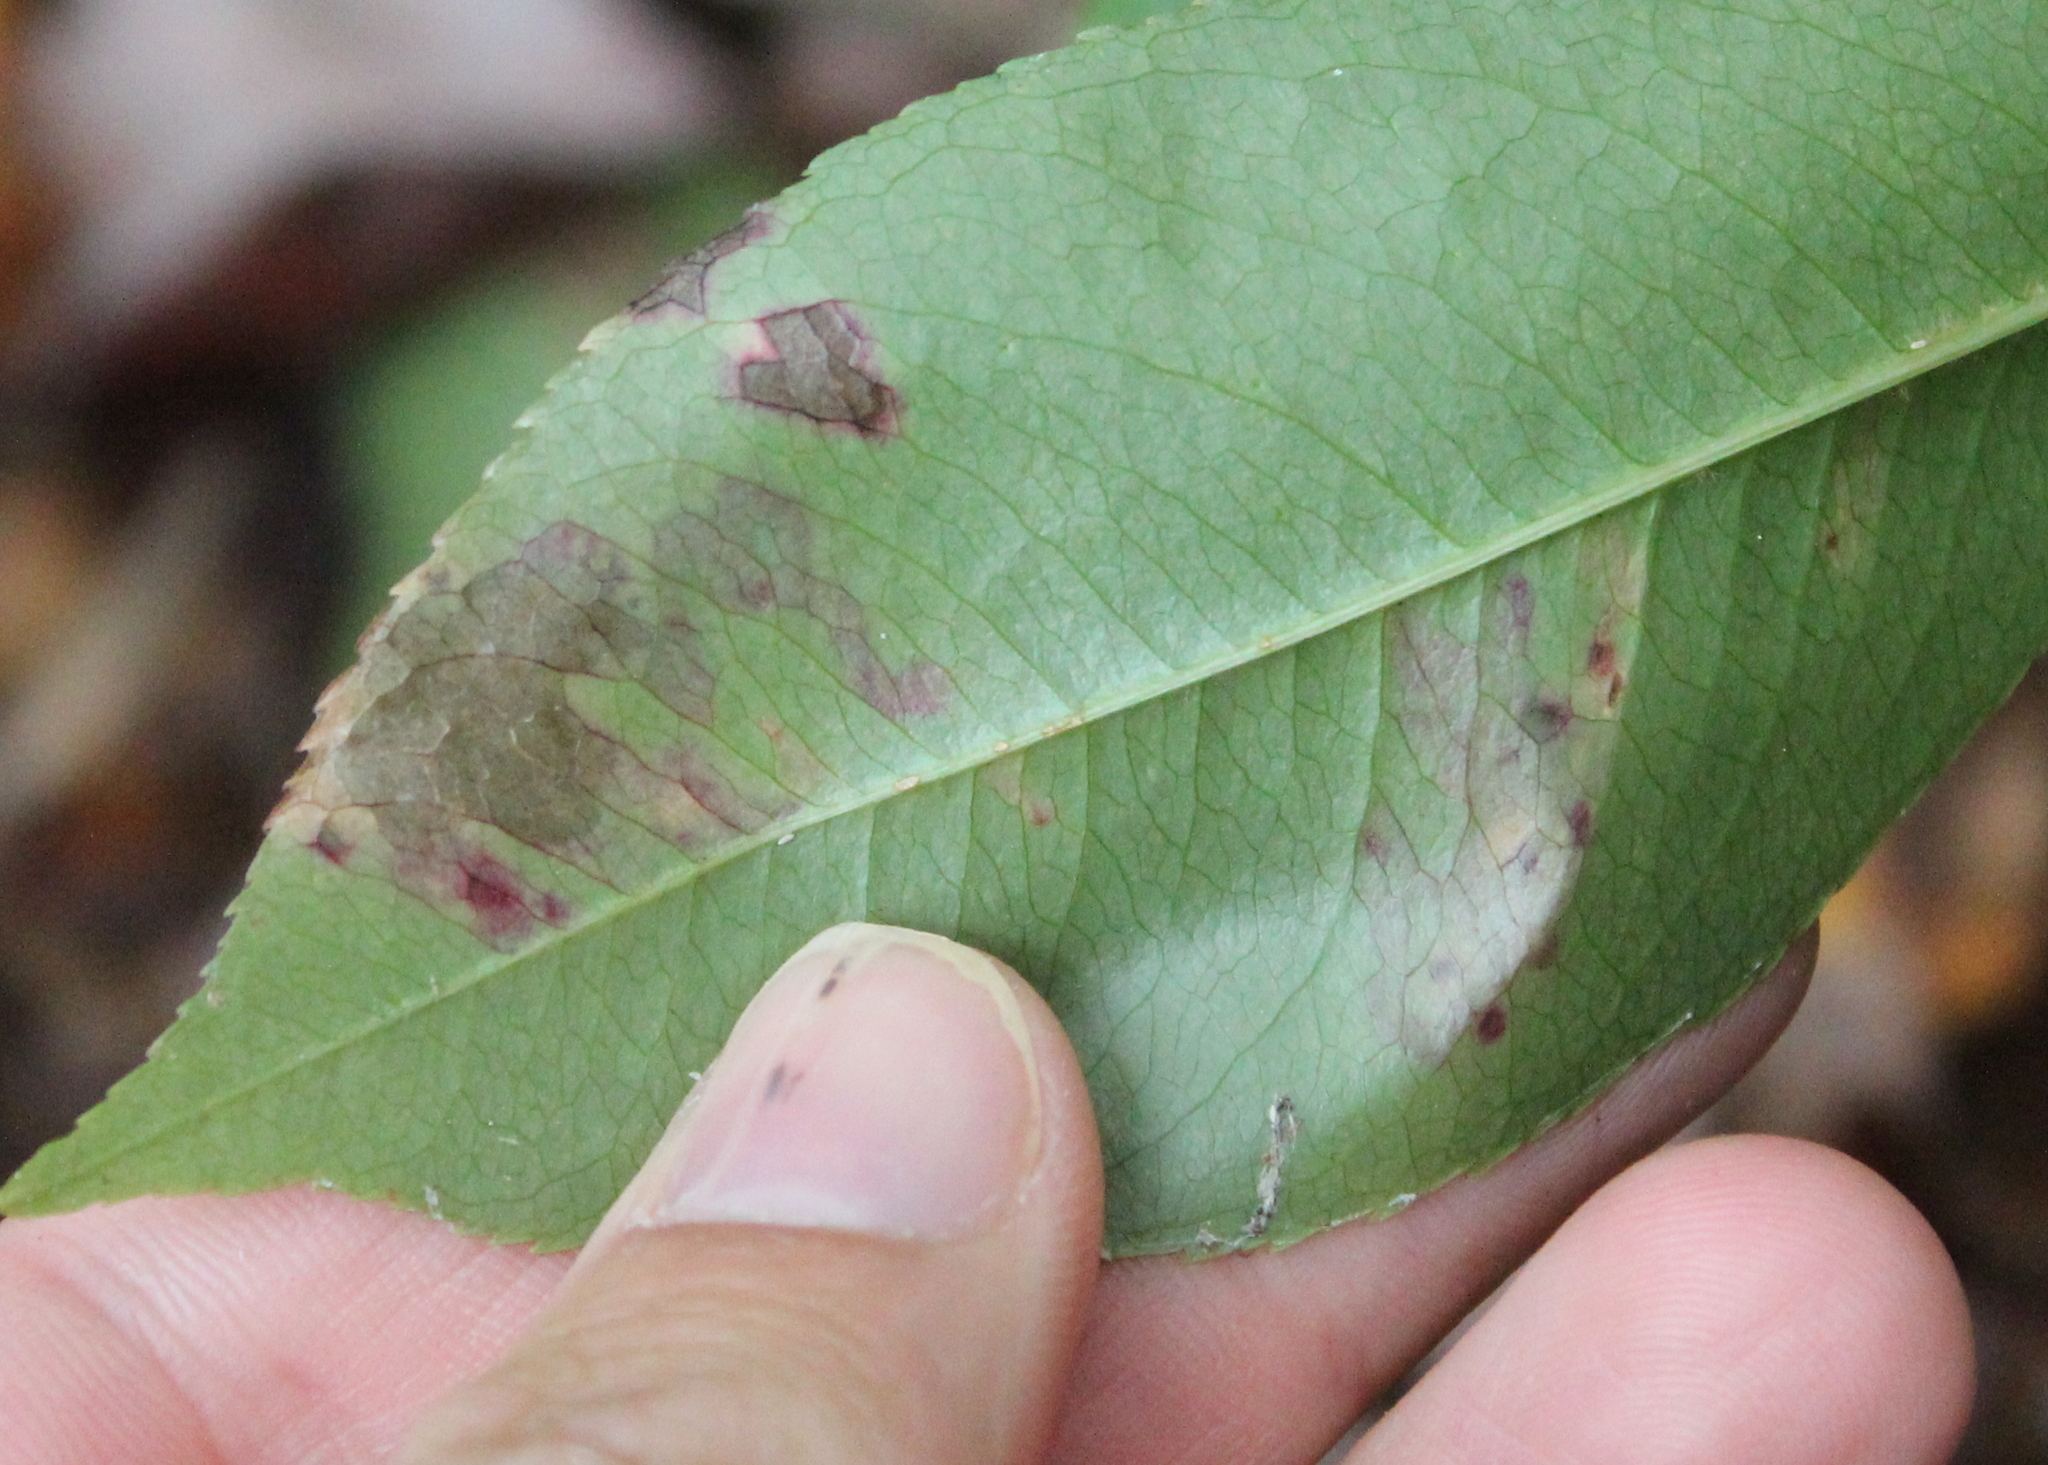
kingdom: Animalia
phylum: Arthropoda
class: Insecta
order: Lepidoptera
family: Nepticulidae
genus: Stigmella
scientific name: Stigmella prunifoliella
